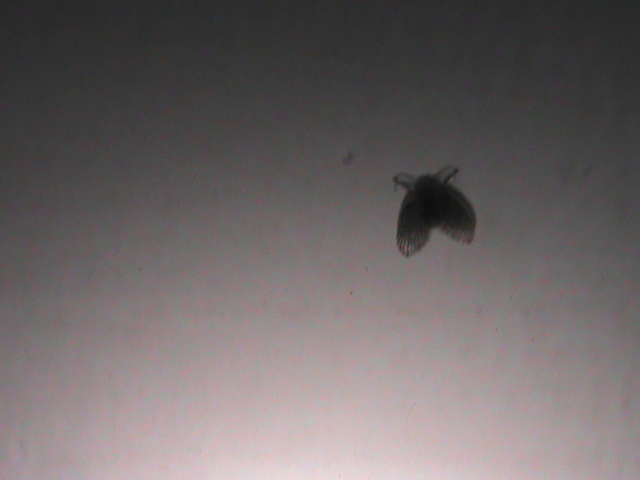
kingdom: Animalia
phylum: Arthropoda
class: Insecta
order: Diptera
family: Psychodidae
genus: Clogmia
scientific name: Clogmia albipunctatus
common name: White-spotted moth fly
